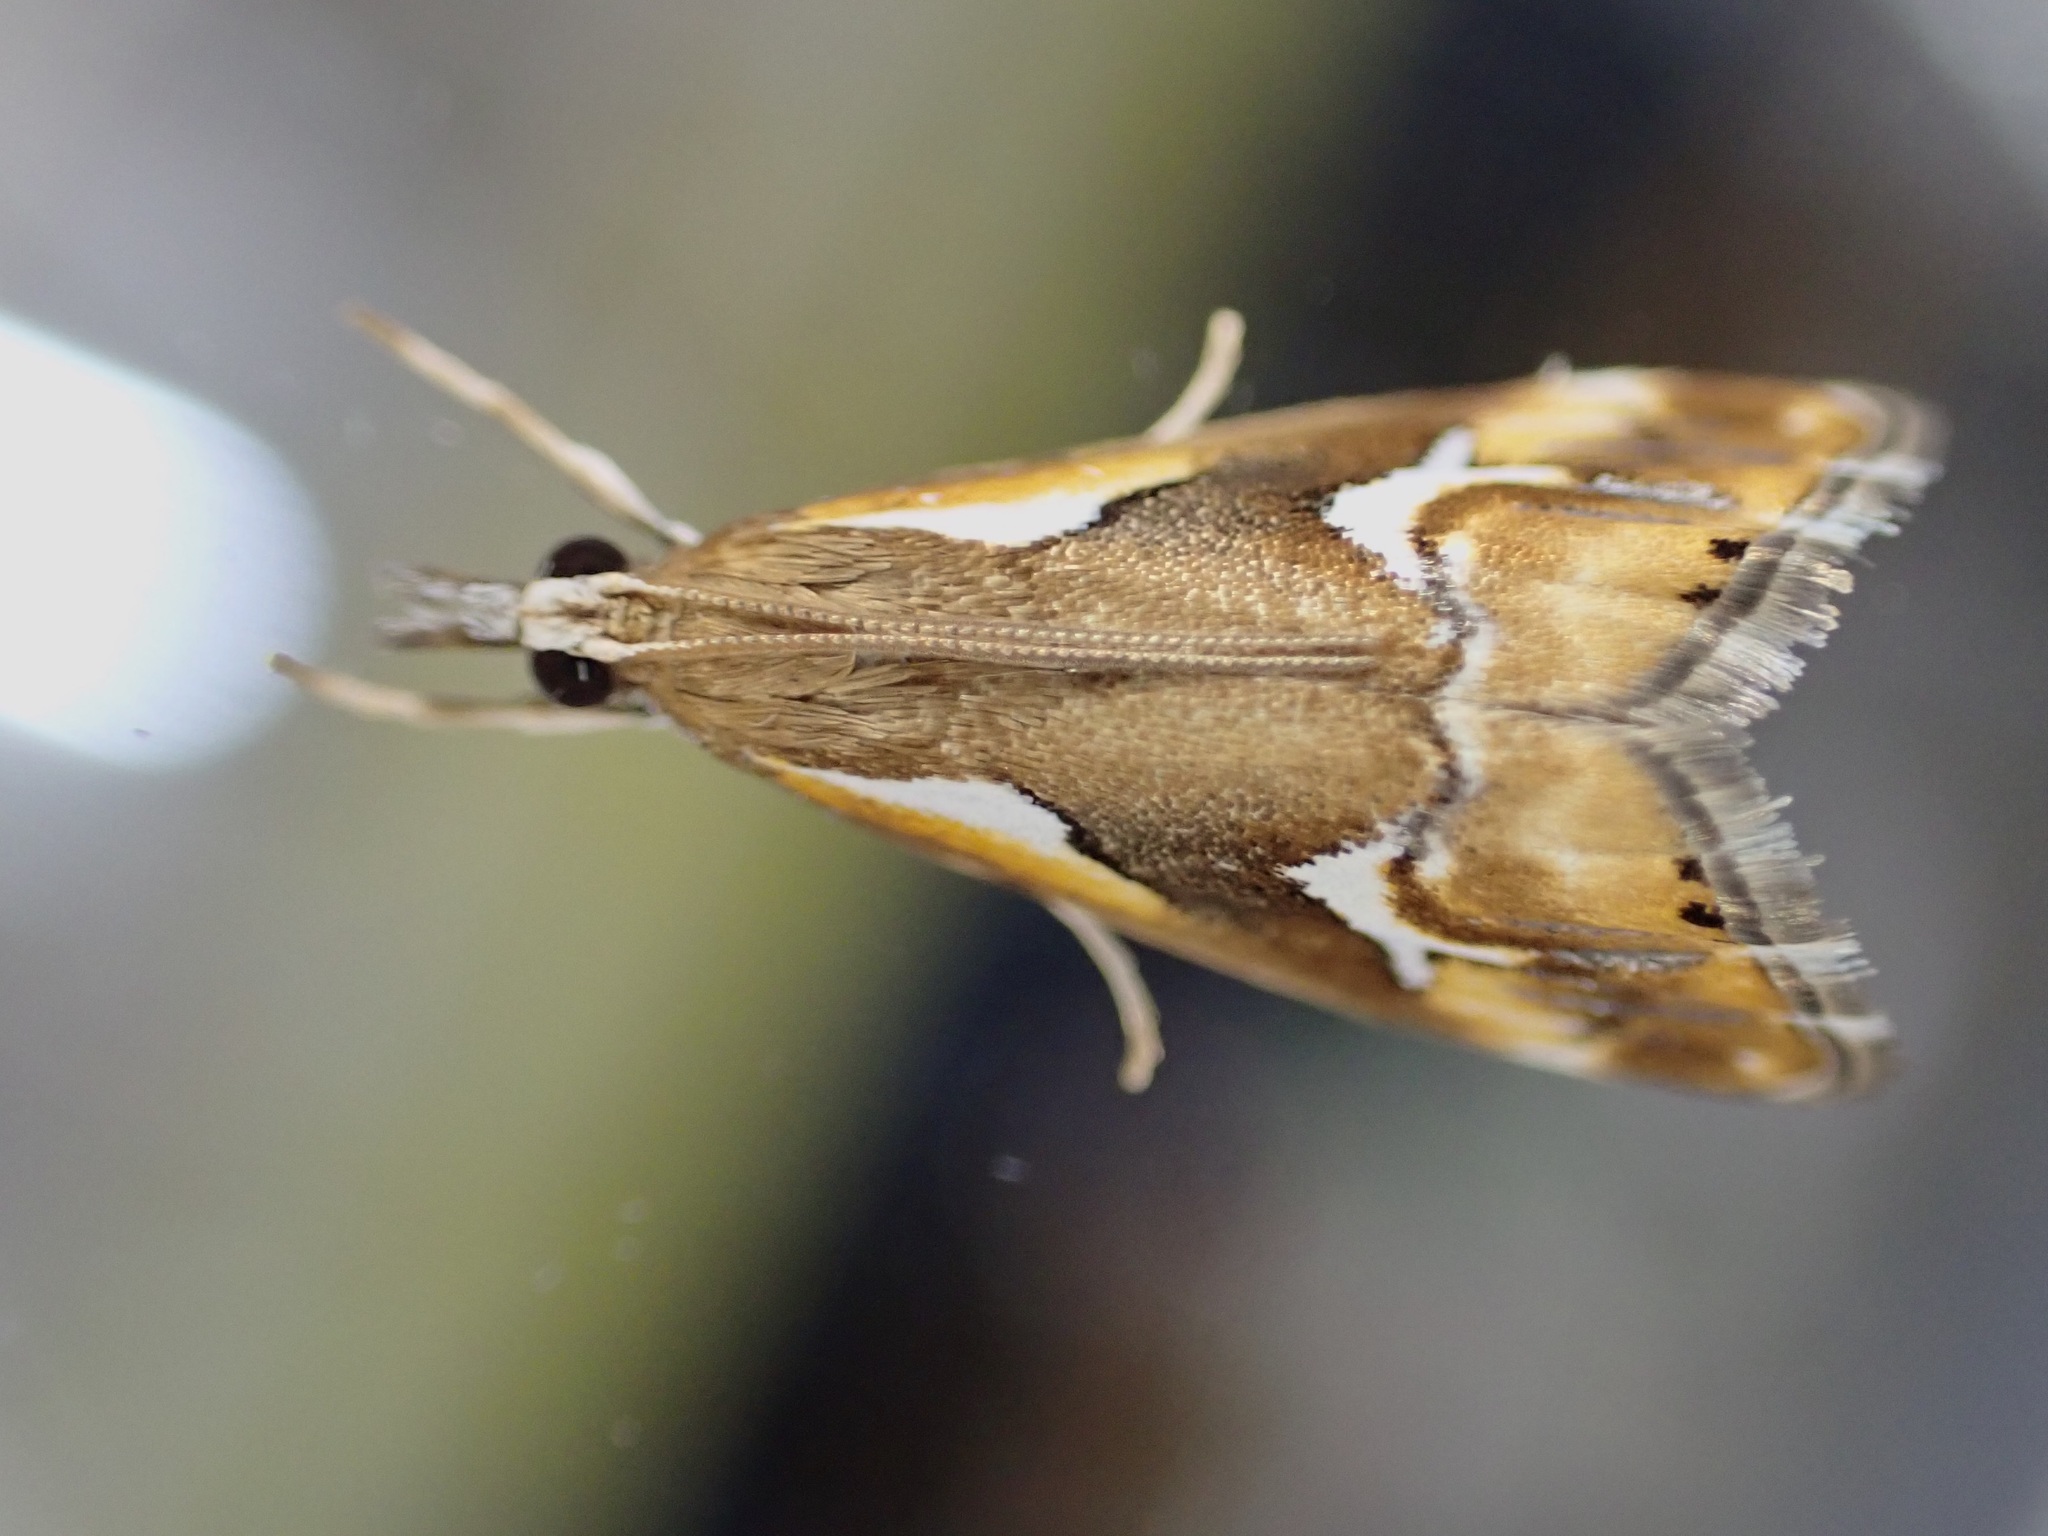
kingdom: Animalia
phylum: Arthropoda
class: Insecta
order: Lepidoptera
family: Crambidae
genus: Glaucocharis
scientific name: Glaucocharis interruptus
